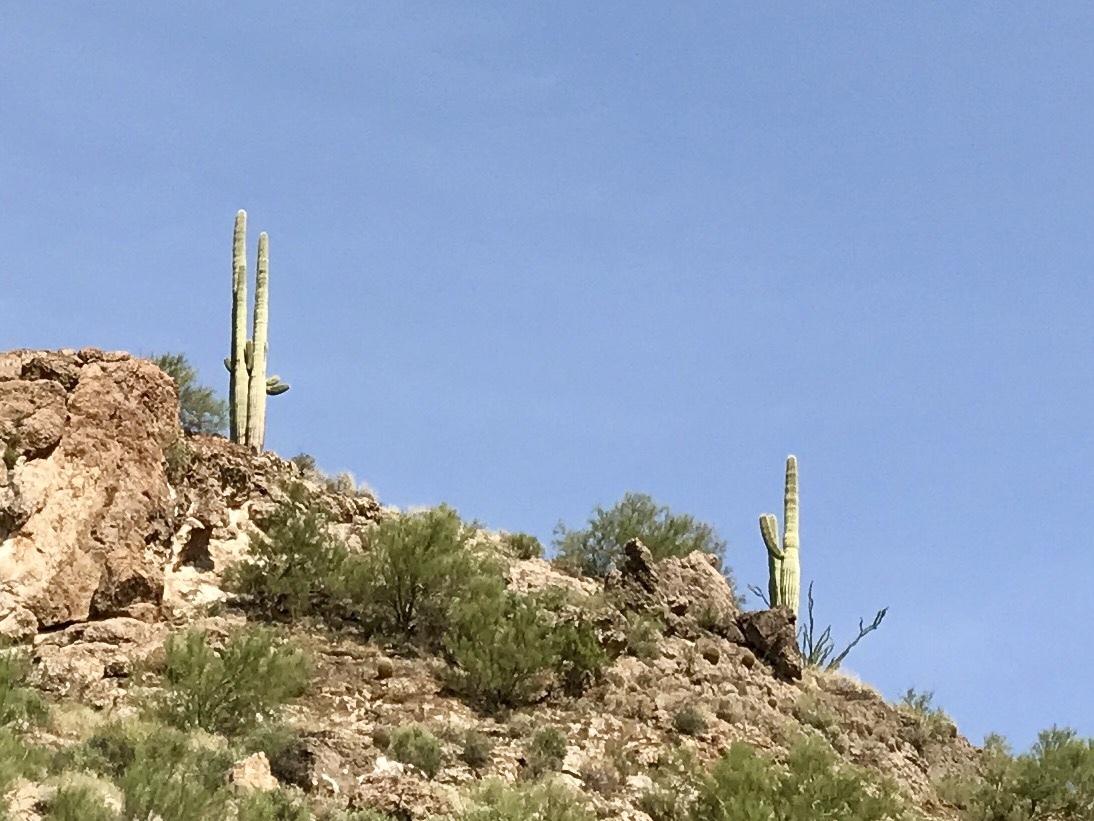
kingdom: Plantae
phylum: Tracheophyta
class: Magnoliopsida
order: Caryophyllales
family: Cactaceae
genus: Carnegiea
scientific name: Carnegiea gigantea
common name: Saguaro
